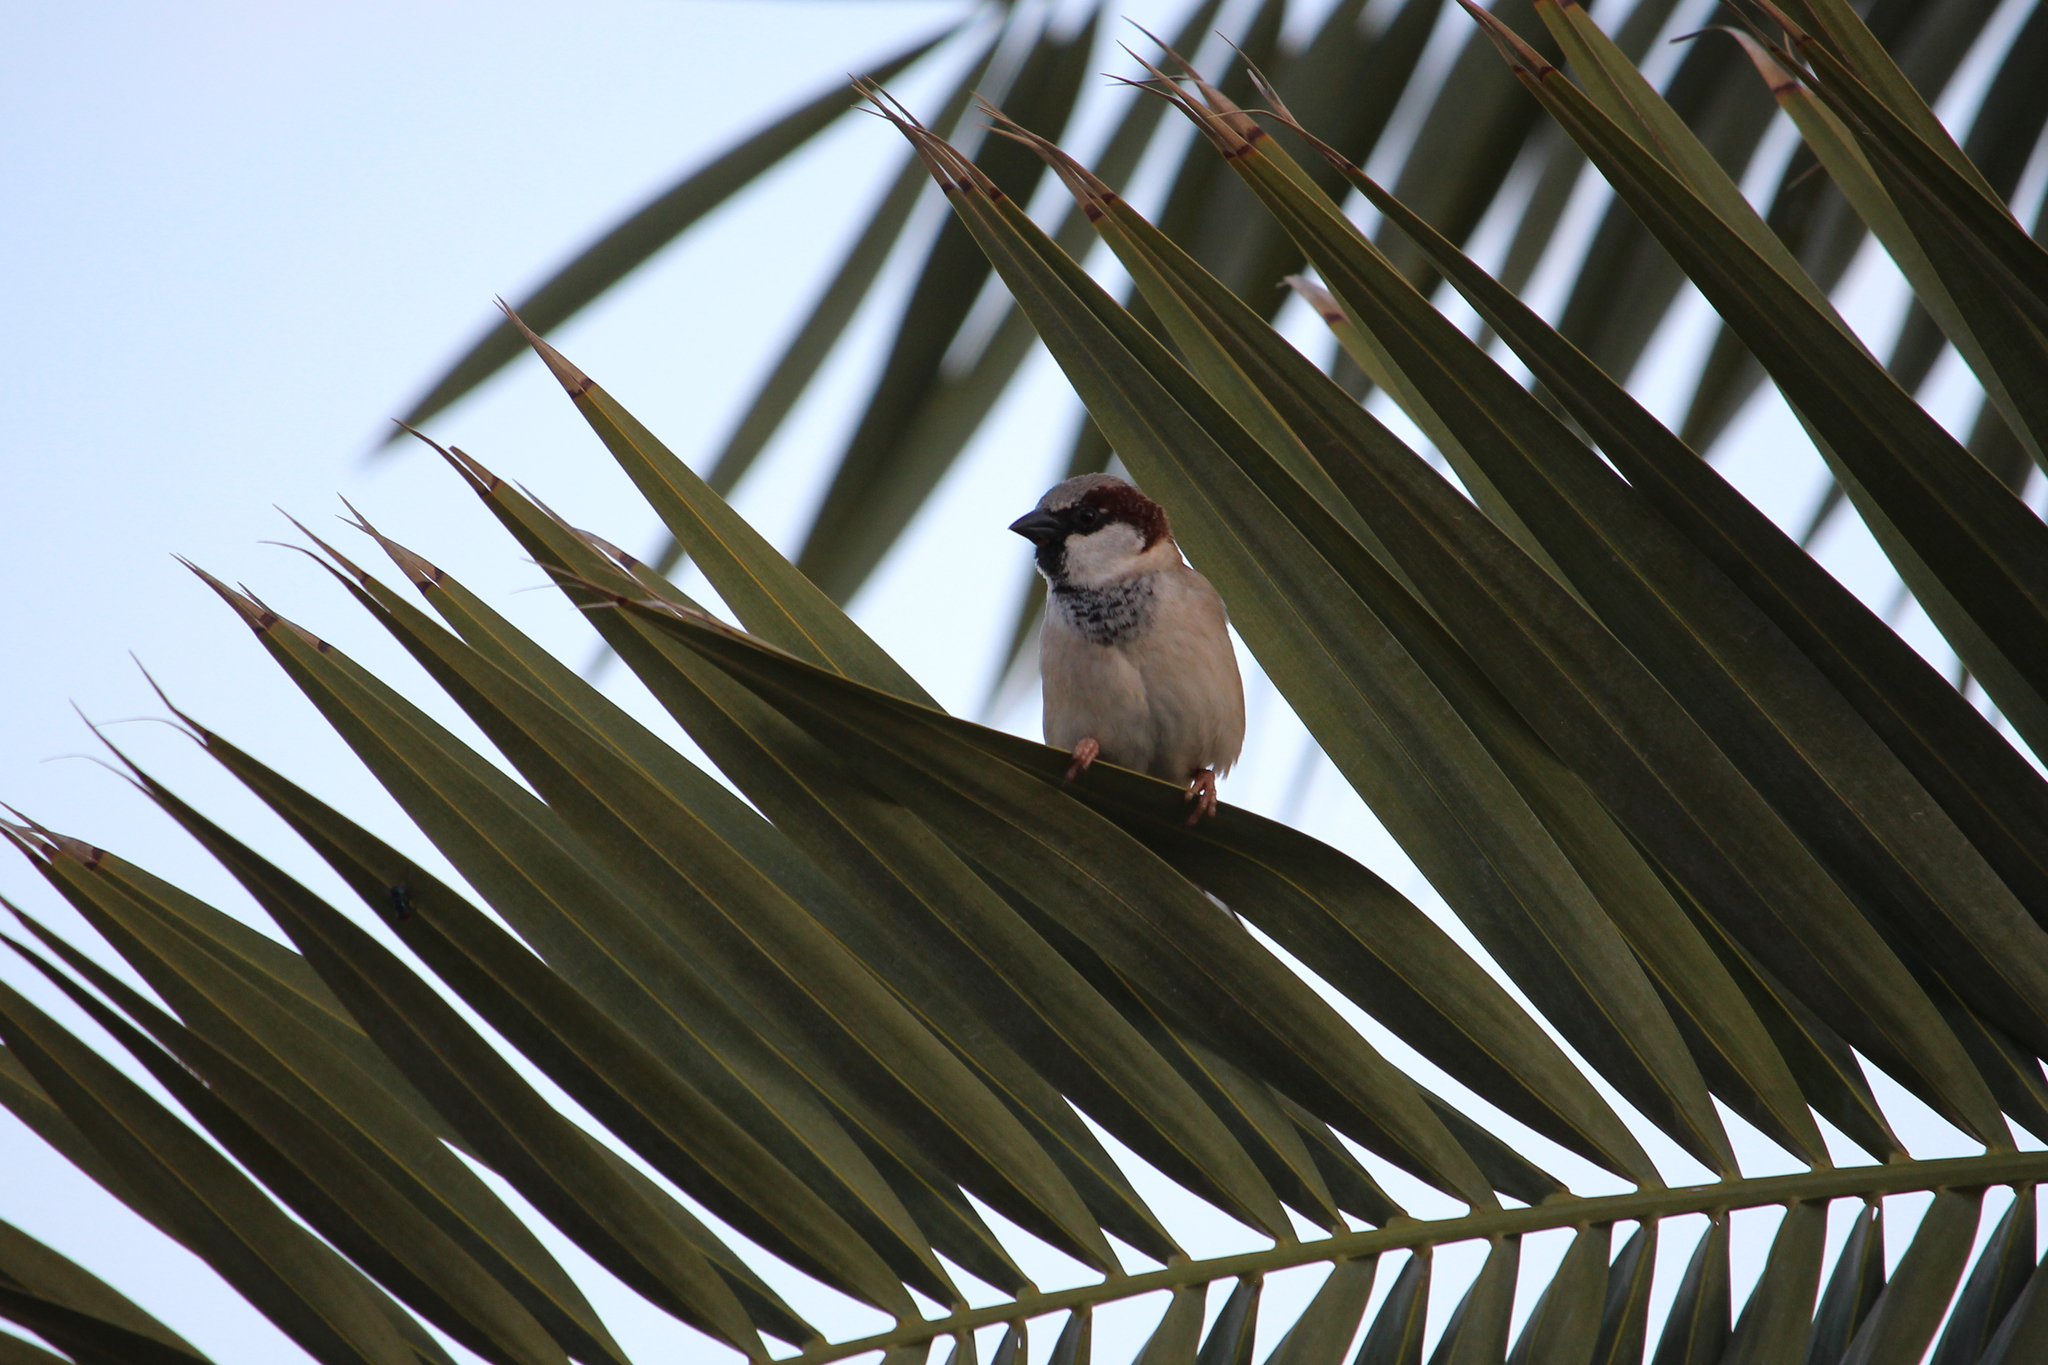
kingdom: Animalia
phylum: Chordata
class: Aves
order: Passeriformes
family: Passeridae
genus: Passer
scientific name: Passer domesticus
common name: House sparrow
